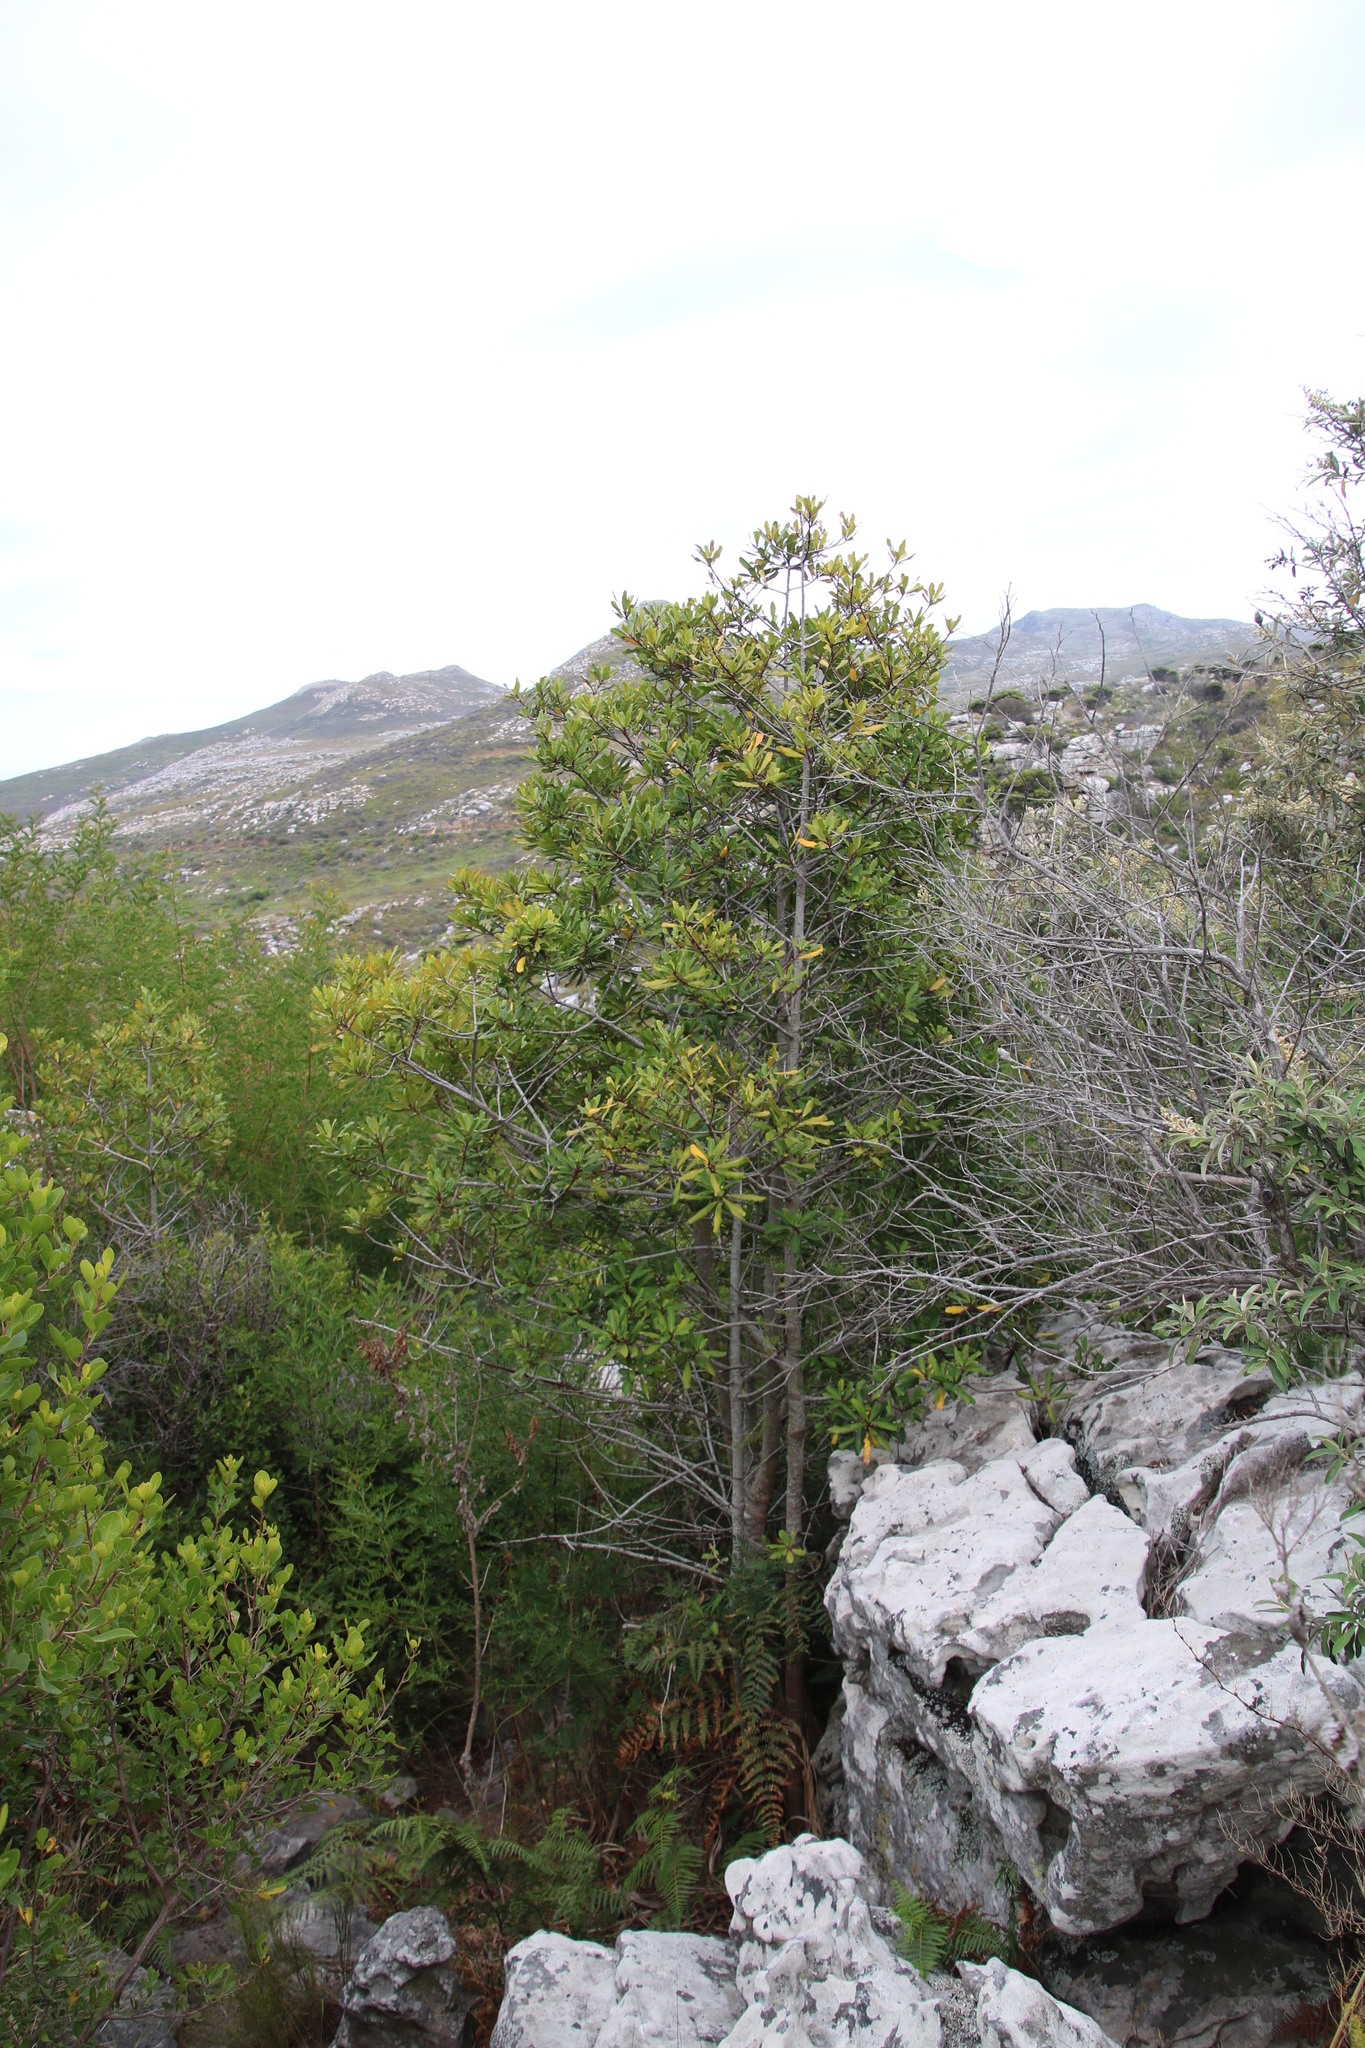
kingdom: Plantae
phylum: Tracheophyta
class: Magnoliopsida
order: Ericales
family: Primulaceae
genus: Myrsine
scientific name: Myrsine melanophloeos
